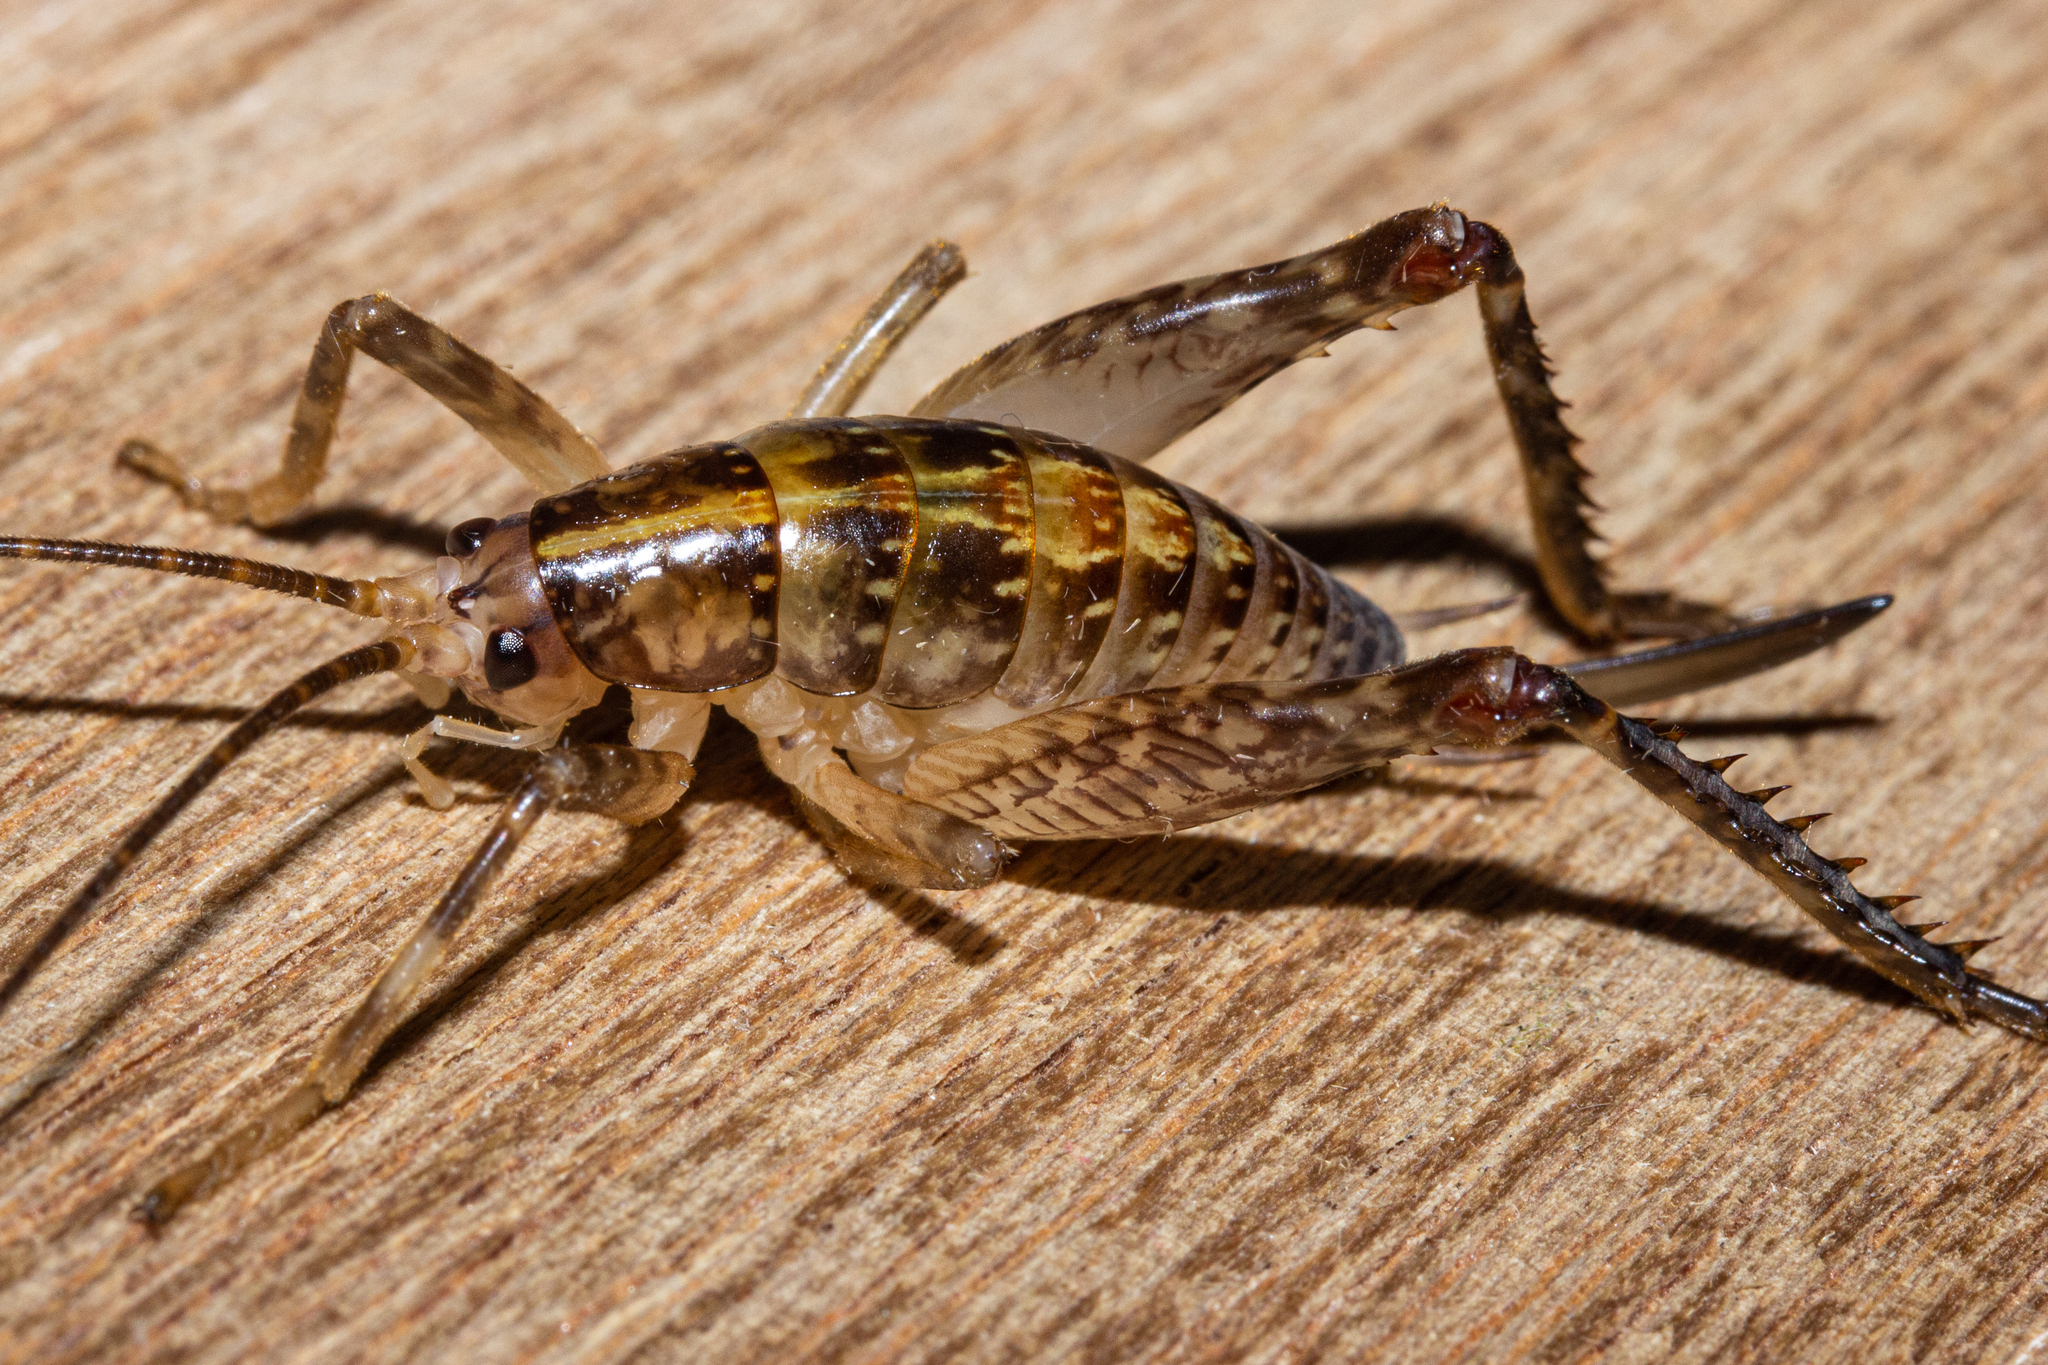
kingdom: Animalia
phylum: Arthropoda
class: Insecta
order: Orthoptera
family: Rhaphidophoridae
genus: Talitropsis
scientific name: Talitropsis sedilloti
